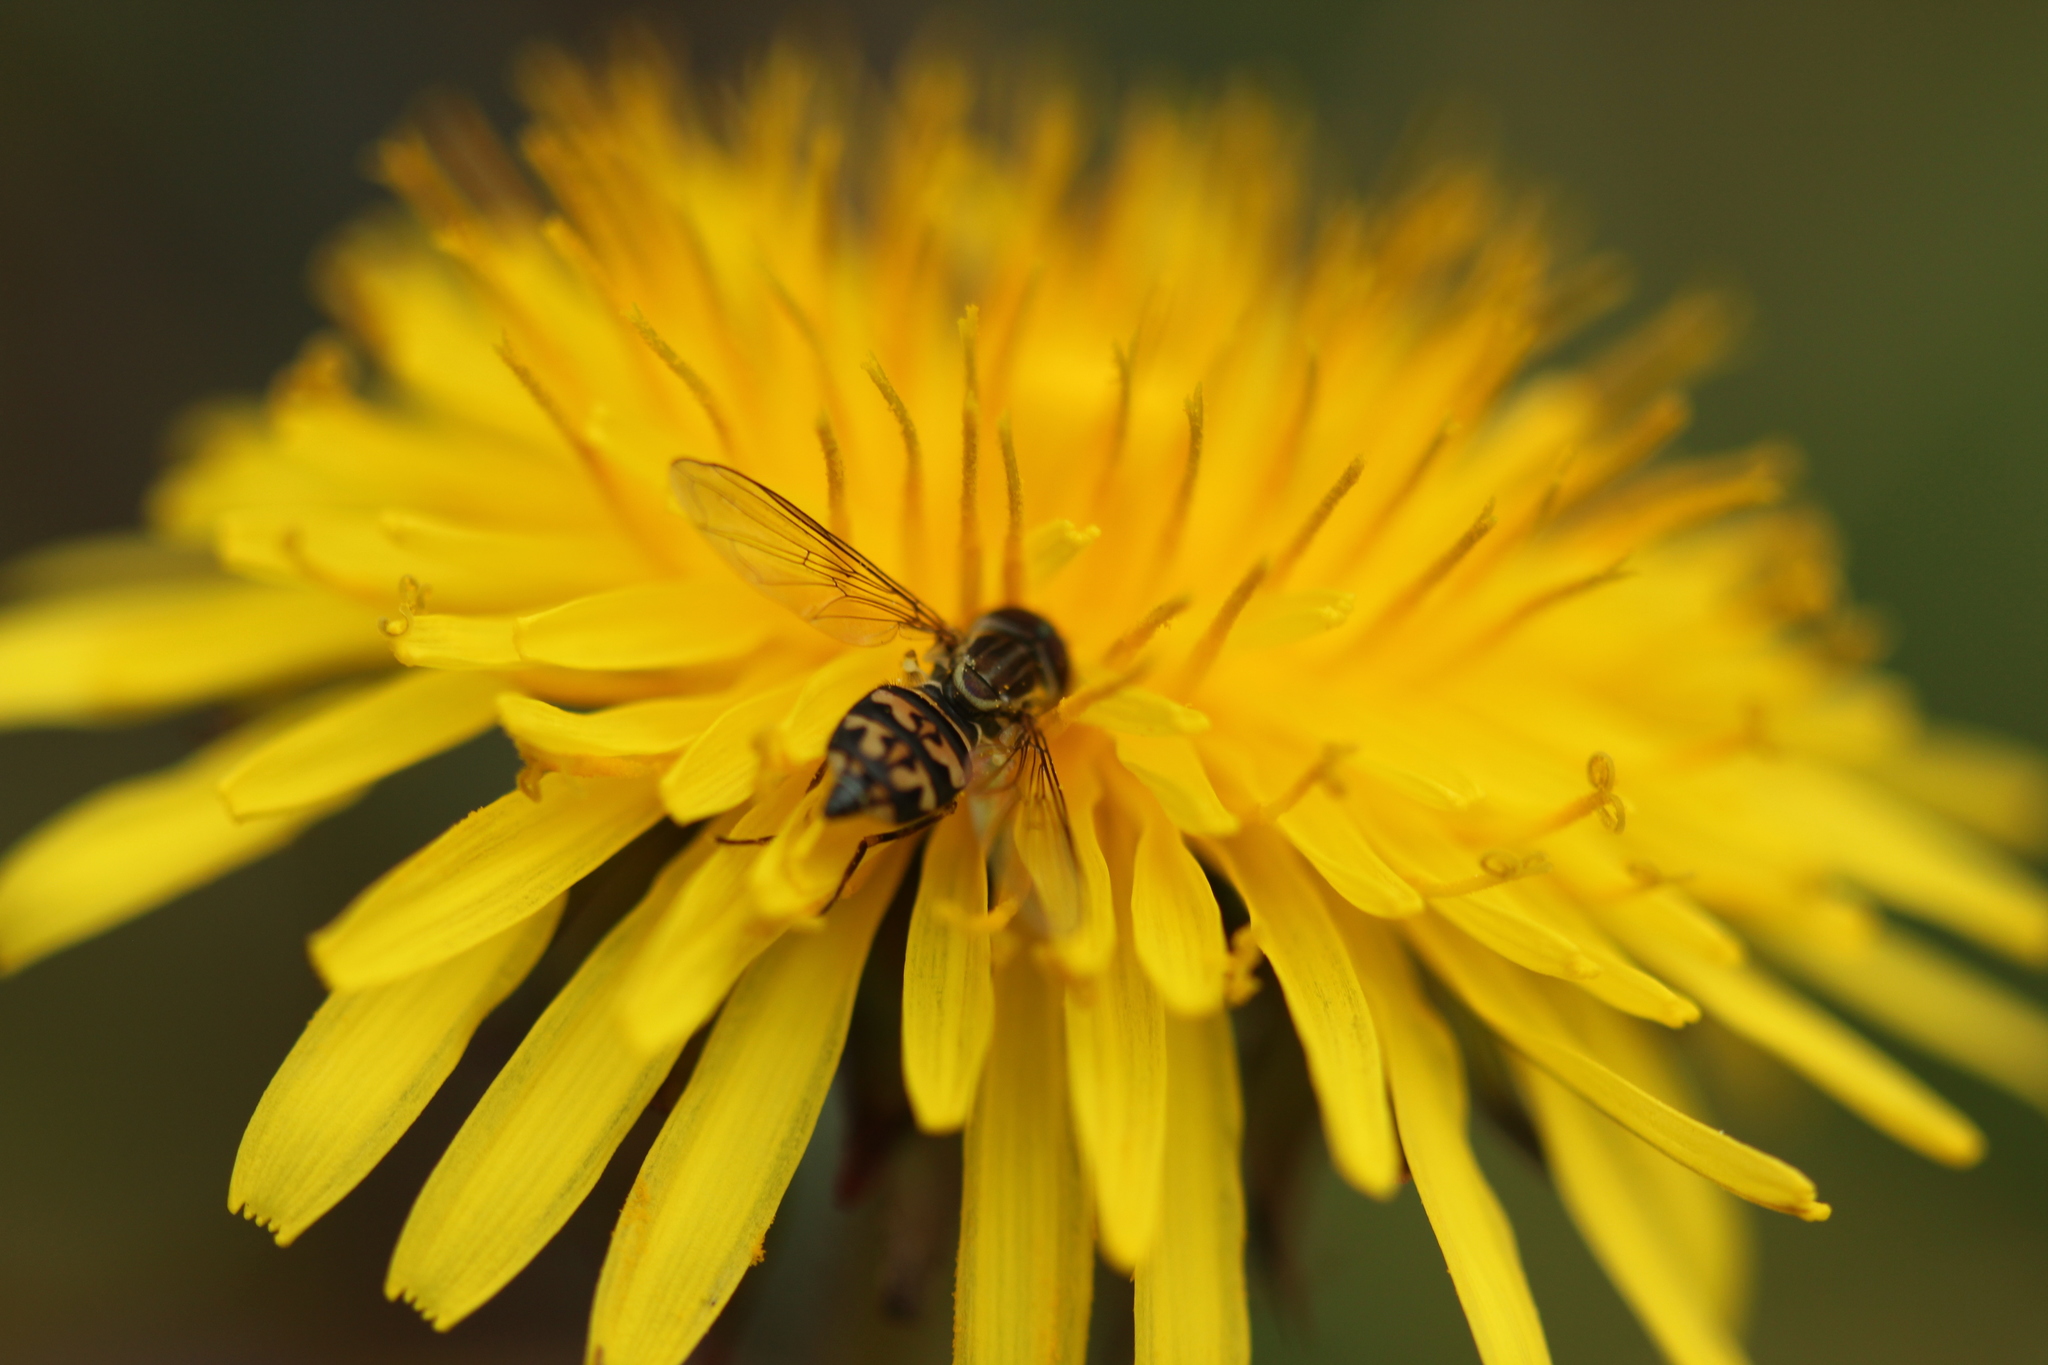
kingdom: Animalia
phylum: Arthropoda
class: Insecta
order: Diptera
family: Syrphidae
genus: Toxomerus
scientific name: Toxomerus geminatus
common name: Eastern calligrapher
